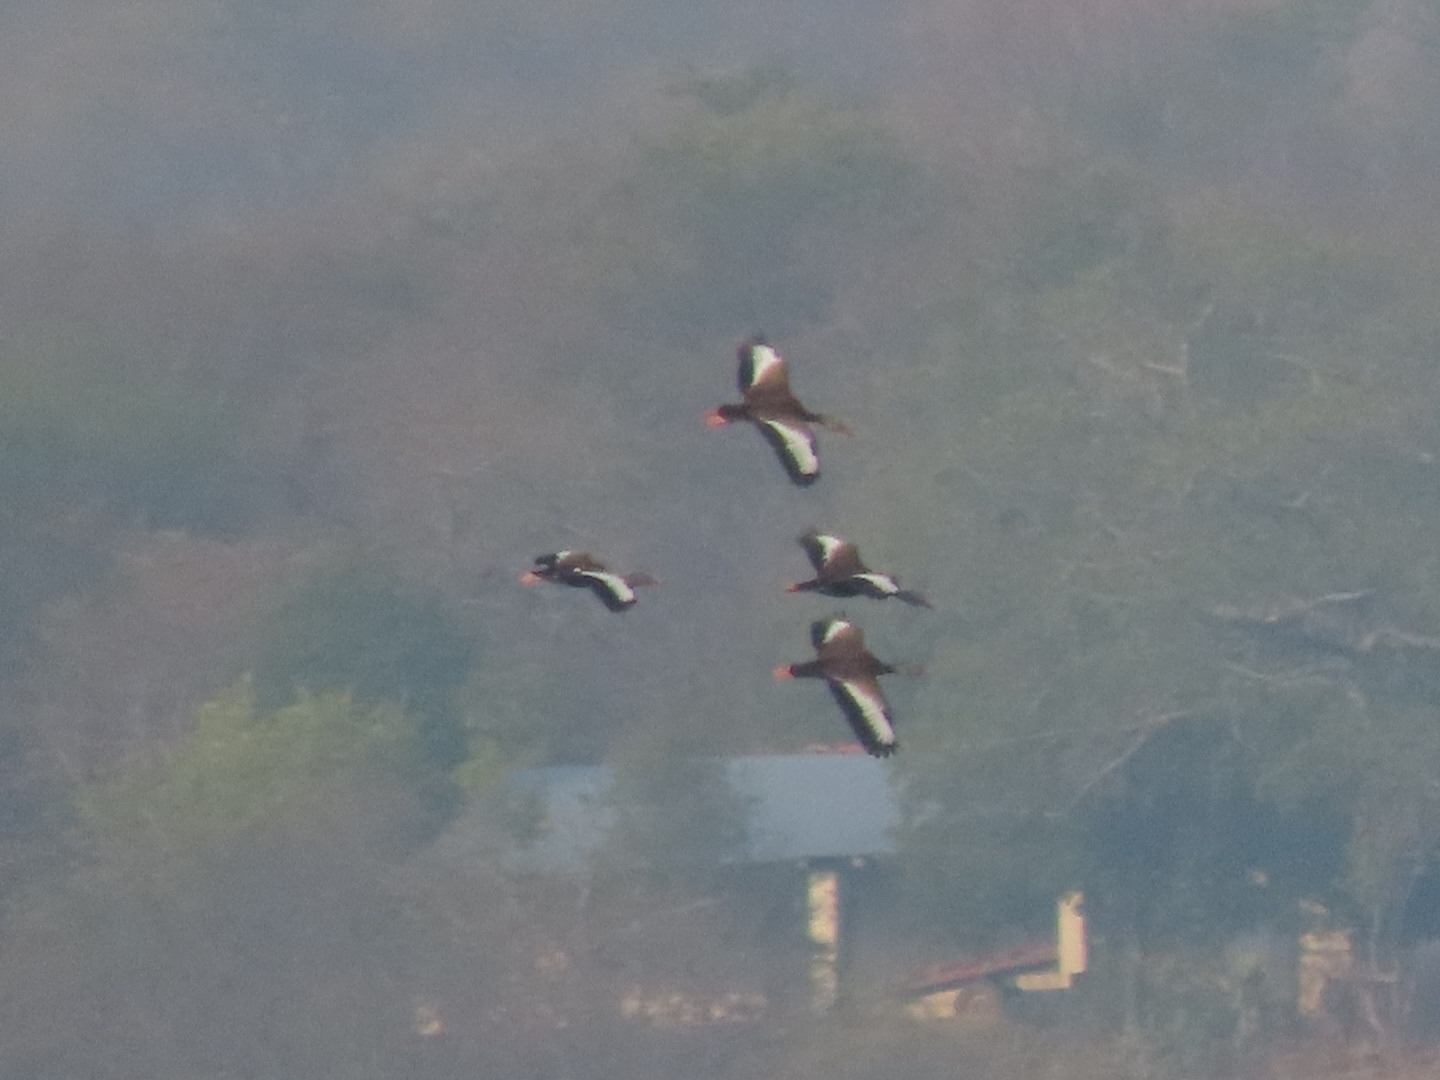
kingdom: Animalia
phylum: Chordata
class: Aves
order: Anseriformes
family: Anatidae
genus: Dendrocygna
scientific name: Dendrocygna autumnalis
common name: Black-bellied whistling duck
